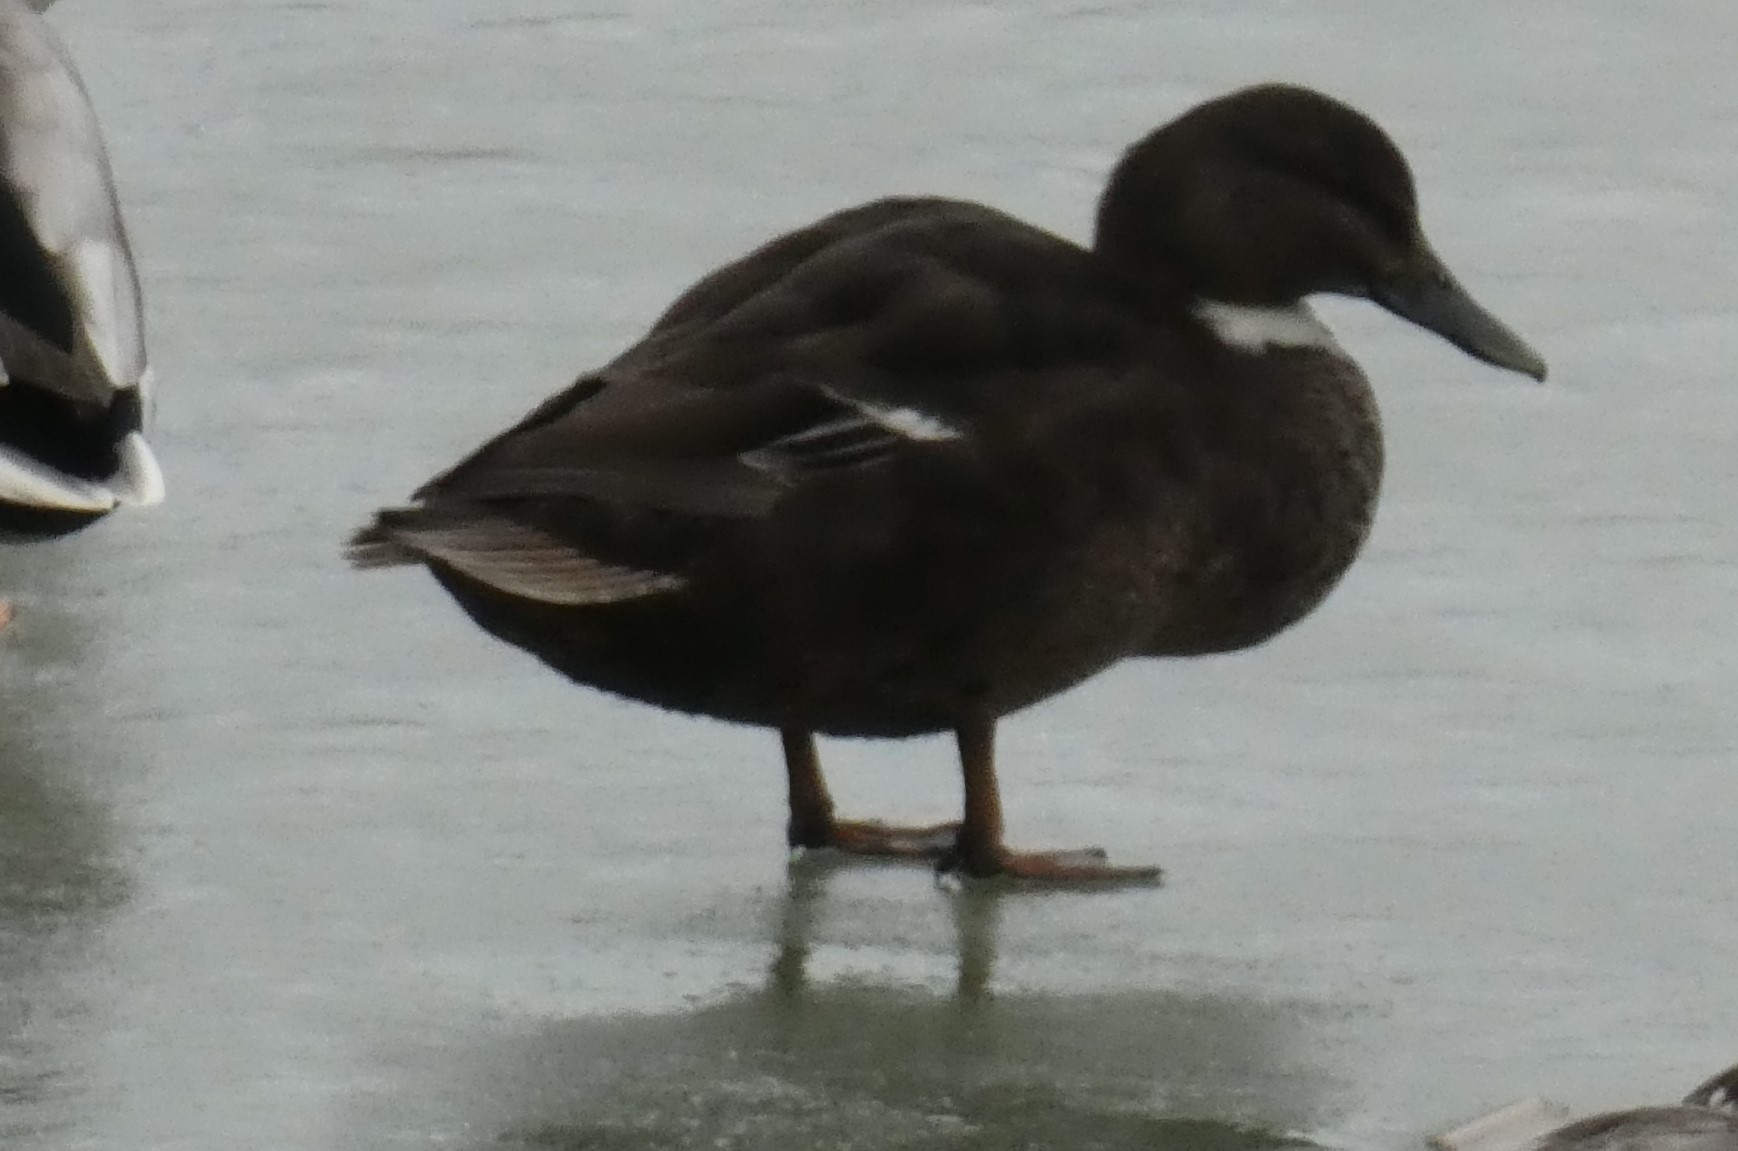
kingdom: Animalia
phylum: Chordata
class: Aves
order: Anseriformes
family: Anatidae
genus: Anas
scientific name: Anas platyrhynchos
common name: Mallard
